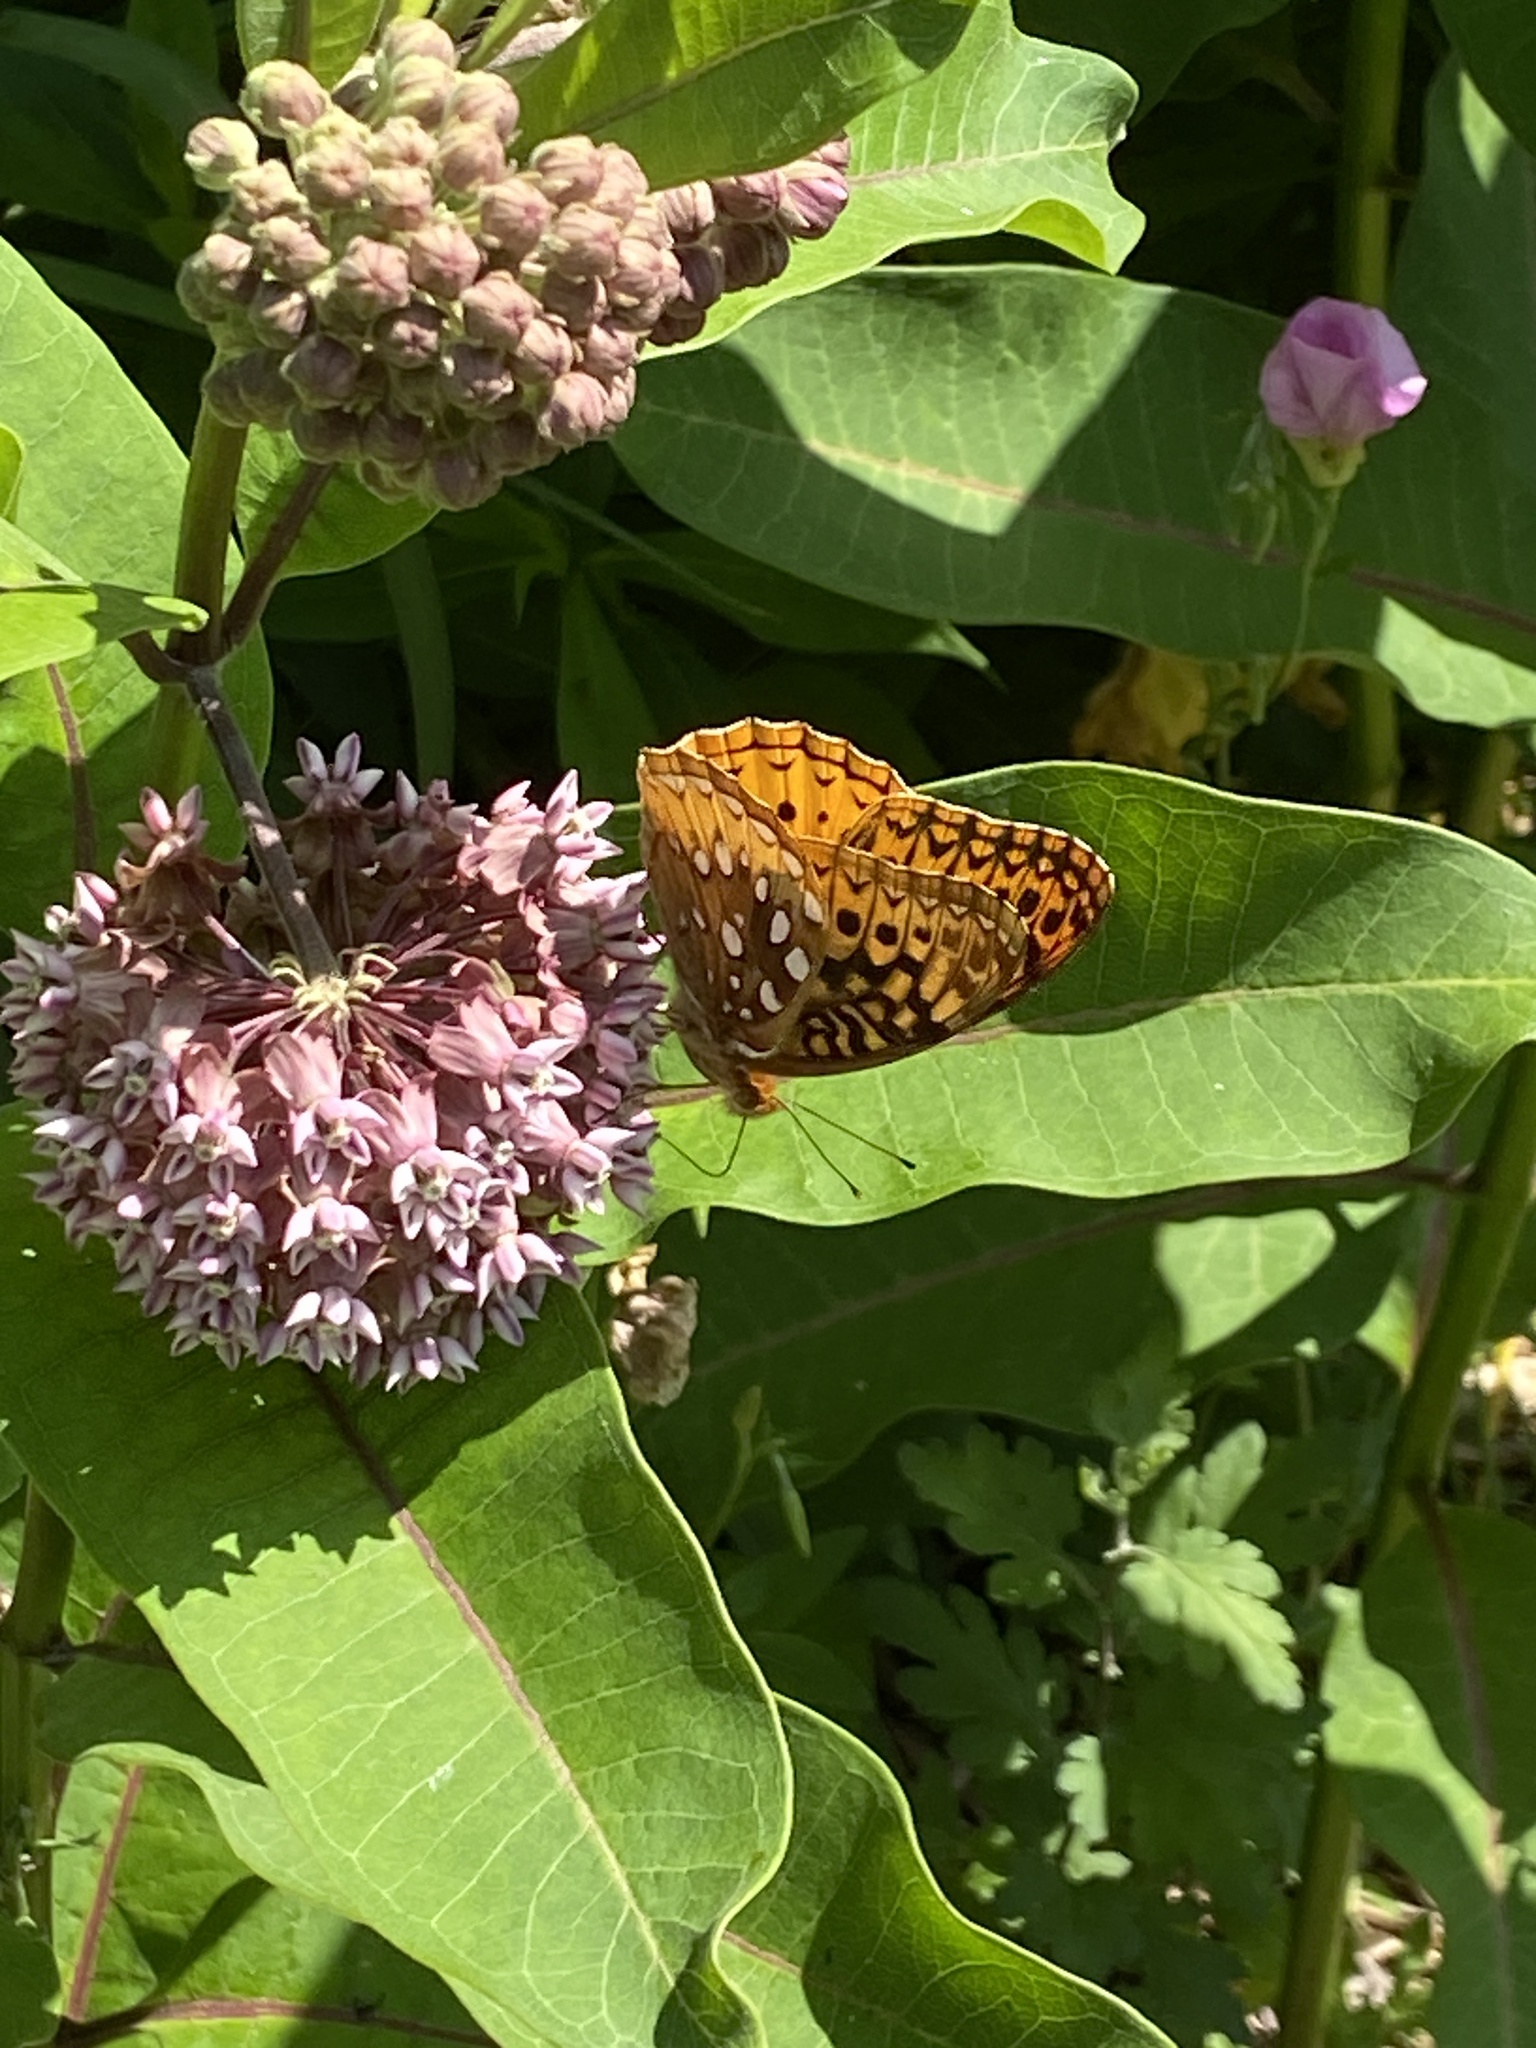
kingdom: Animalia
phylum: Arthropoda
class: Insecta
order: Lepidoptera
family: Nymphalidae
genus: Speyeria
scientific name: Speyeria cybele
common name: Great spangled fritillary
